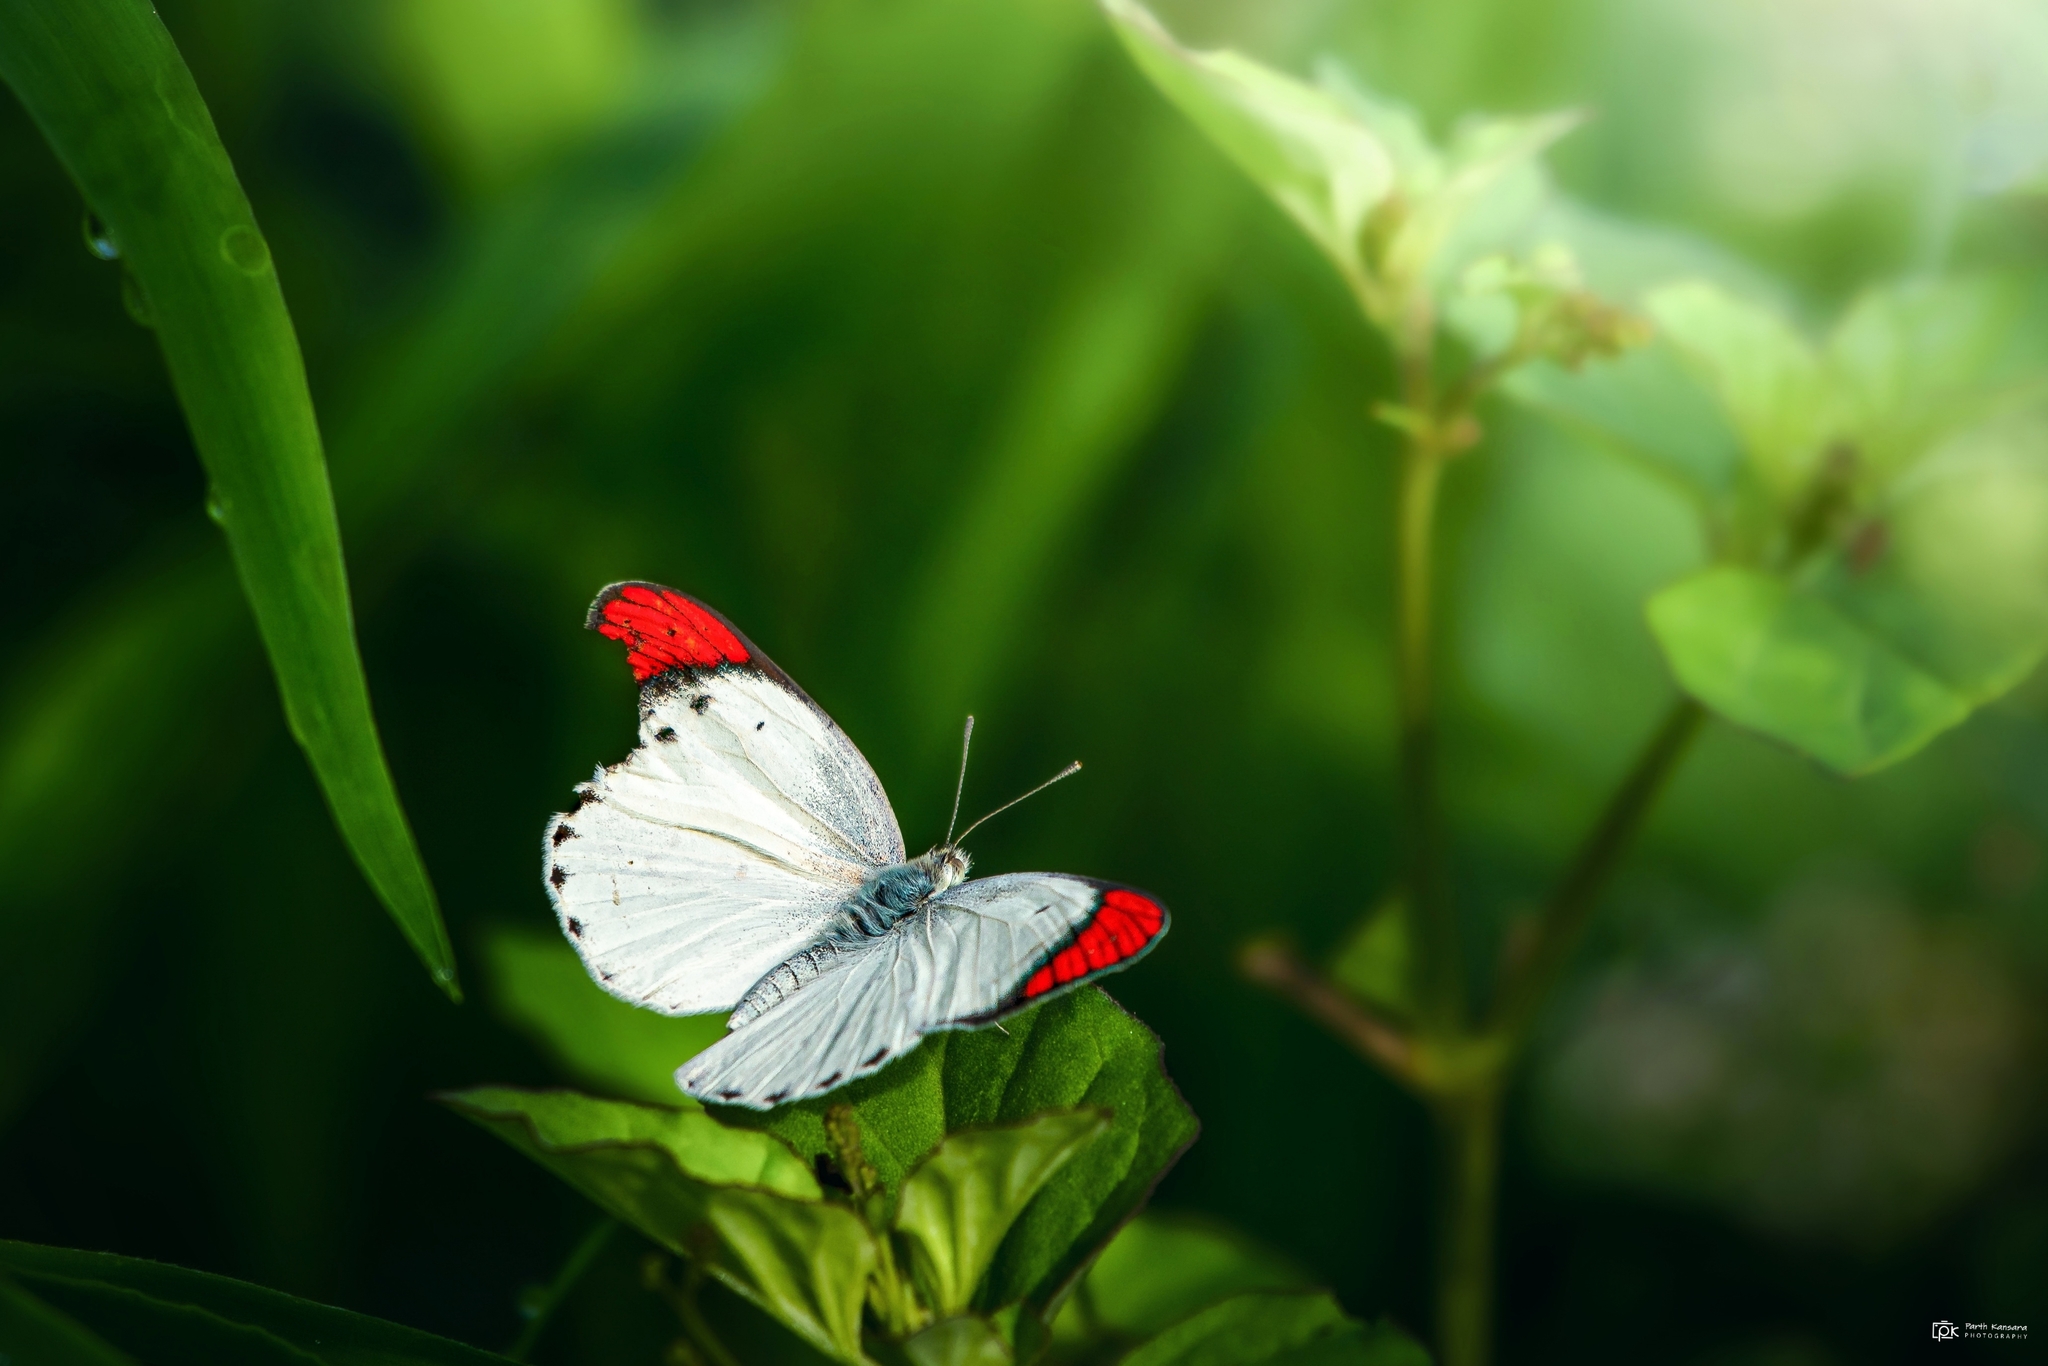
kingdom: Animalia
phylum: Arthropoda
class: Insecta
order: Lepidoptera
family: Pieridae
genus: Colotis
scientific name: Colotis danae
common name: Crimson tip
